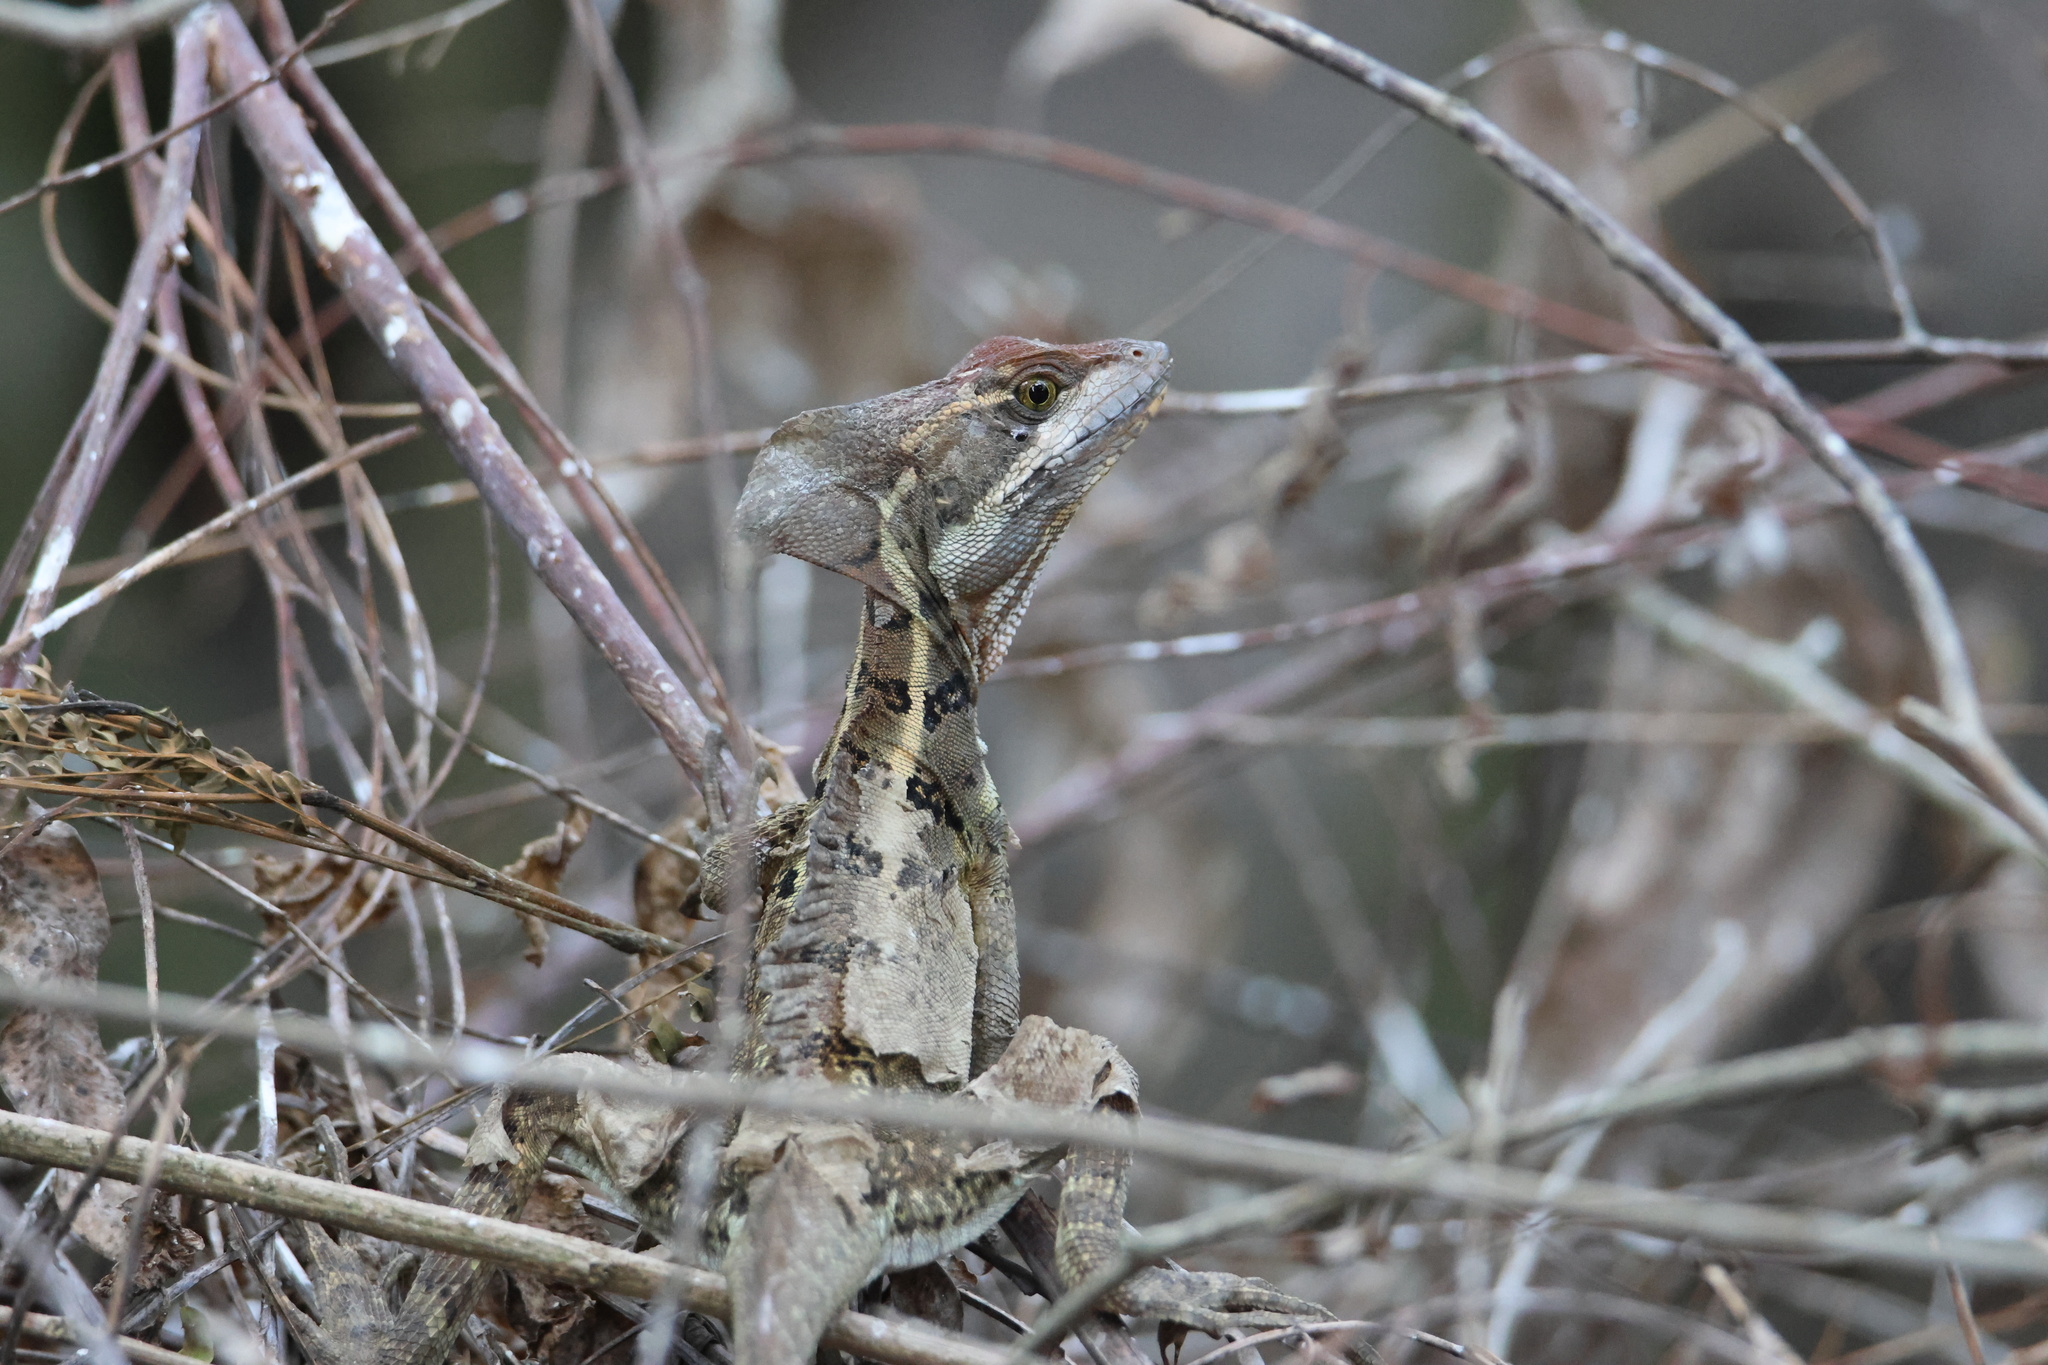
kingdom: Animalia
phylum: Chordata
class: Squamata
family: Corytophanidae
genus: Basiliscus
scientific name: Basiliscus basiliscus
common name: Common basilisk
